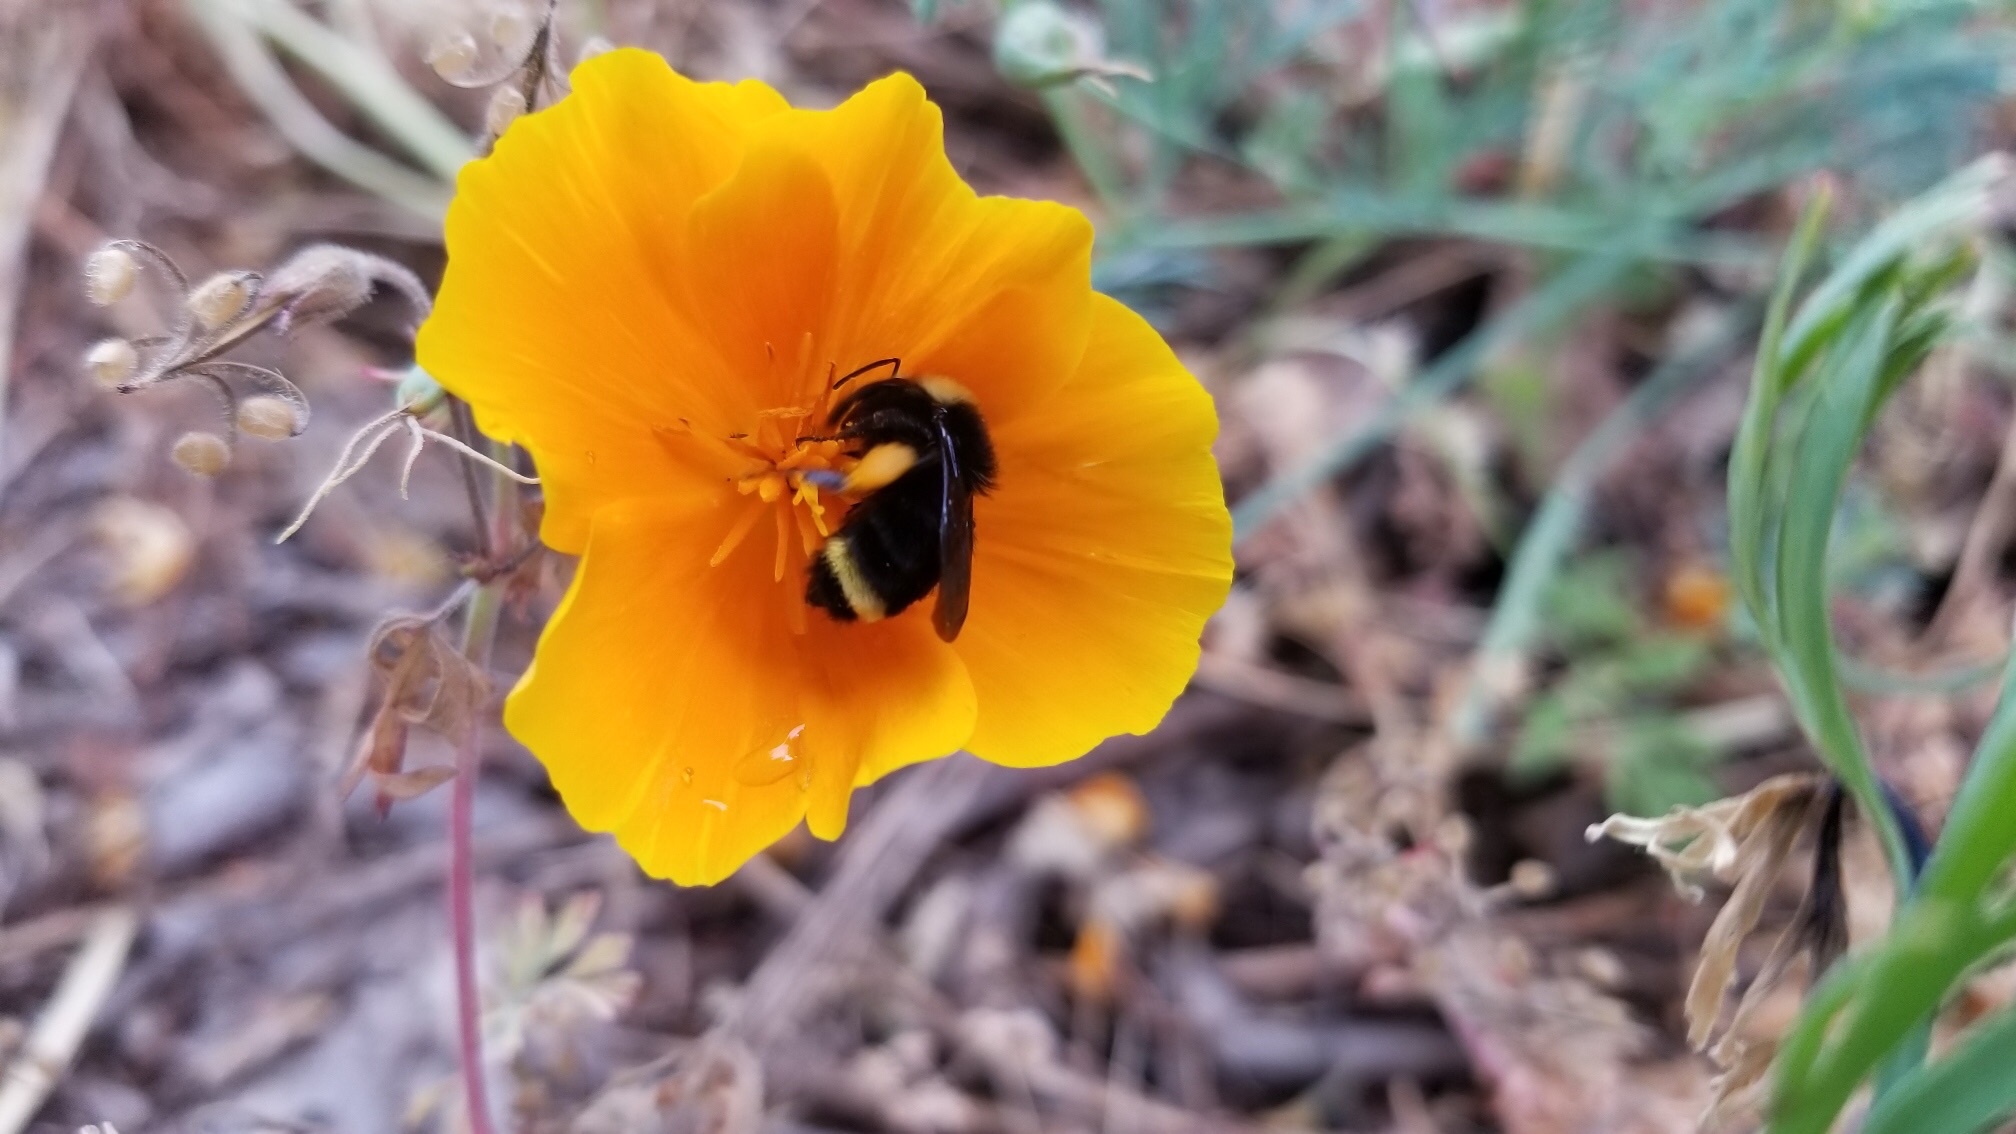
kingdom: Animalia
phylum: Arthropoda
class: Insecta
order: Hymenoptera
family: Apidae
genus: Bombus
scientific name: Bombus vosnesenskii
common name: Vosnesensky bumble bee
